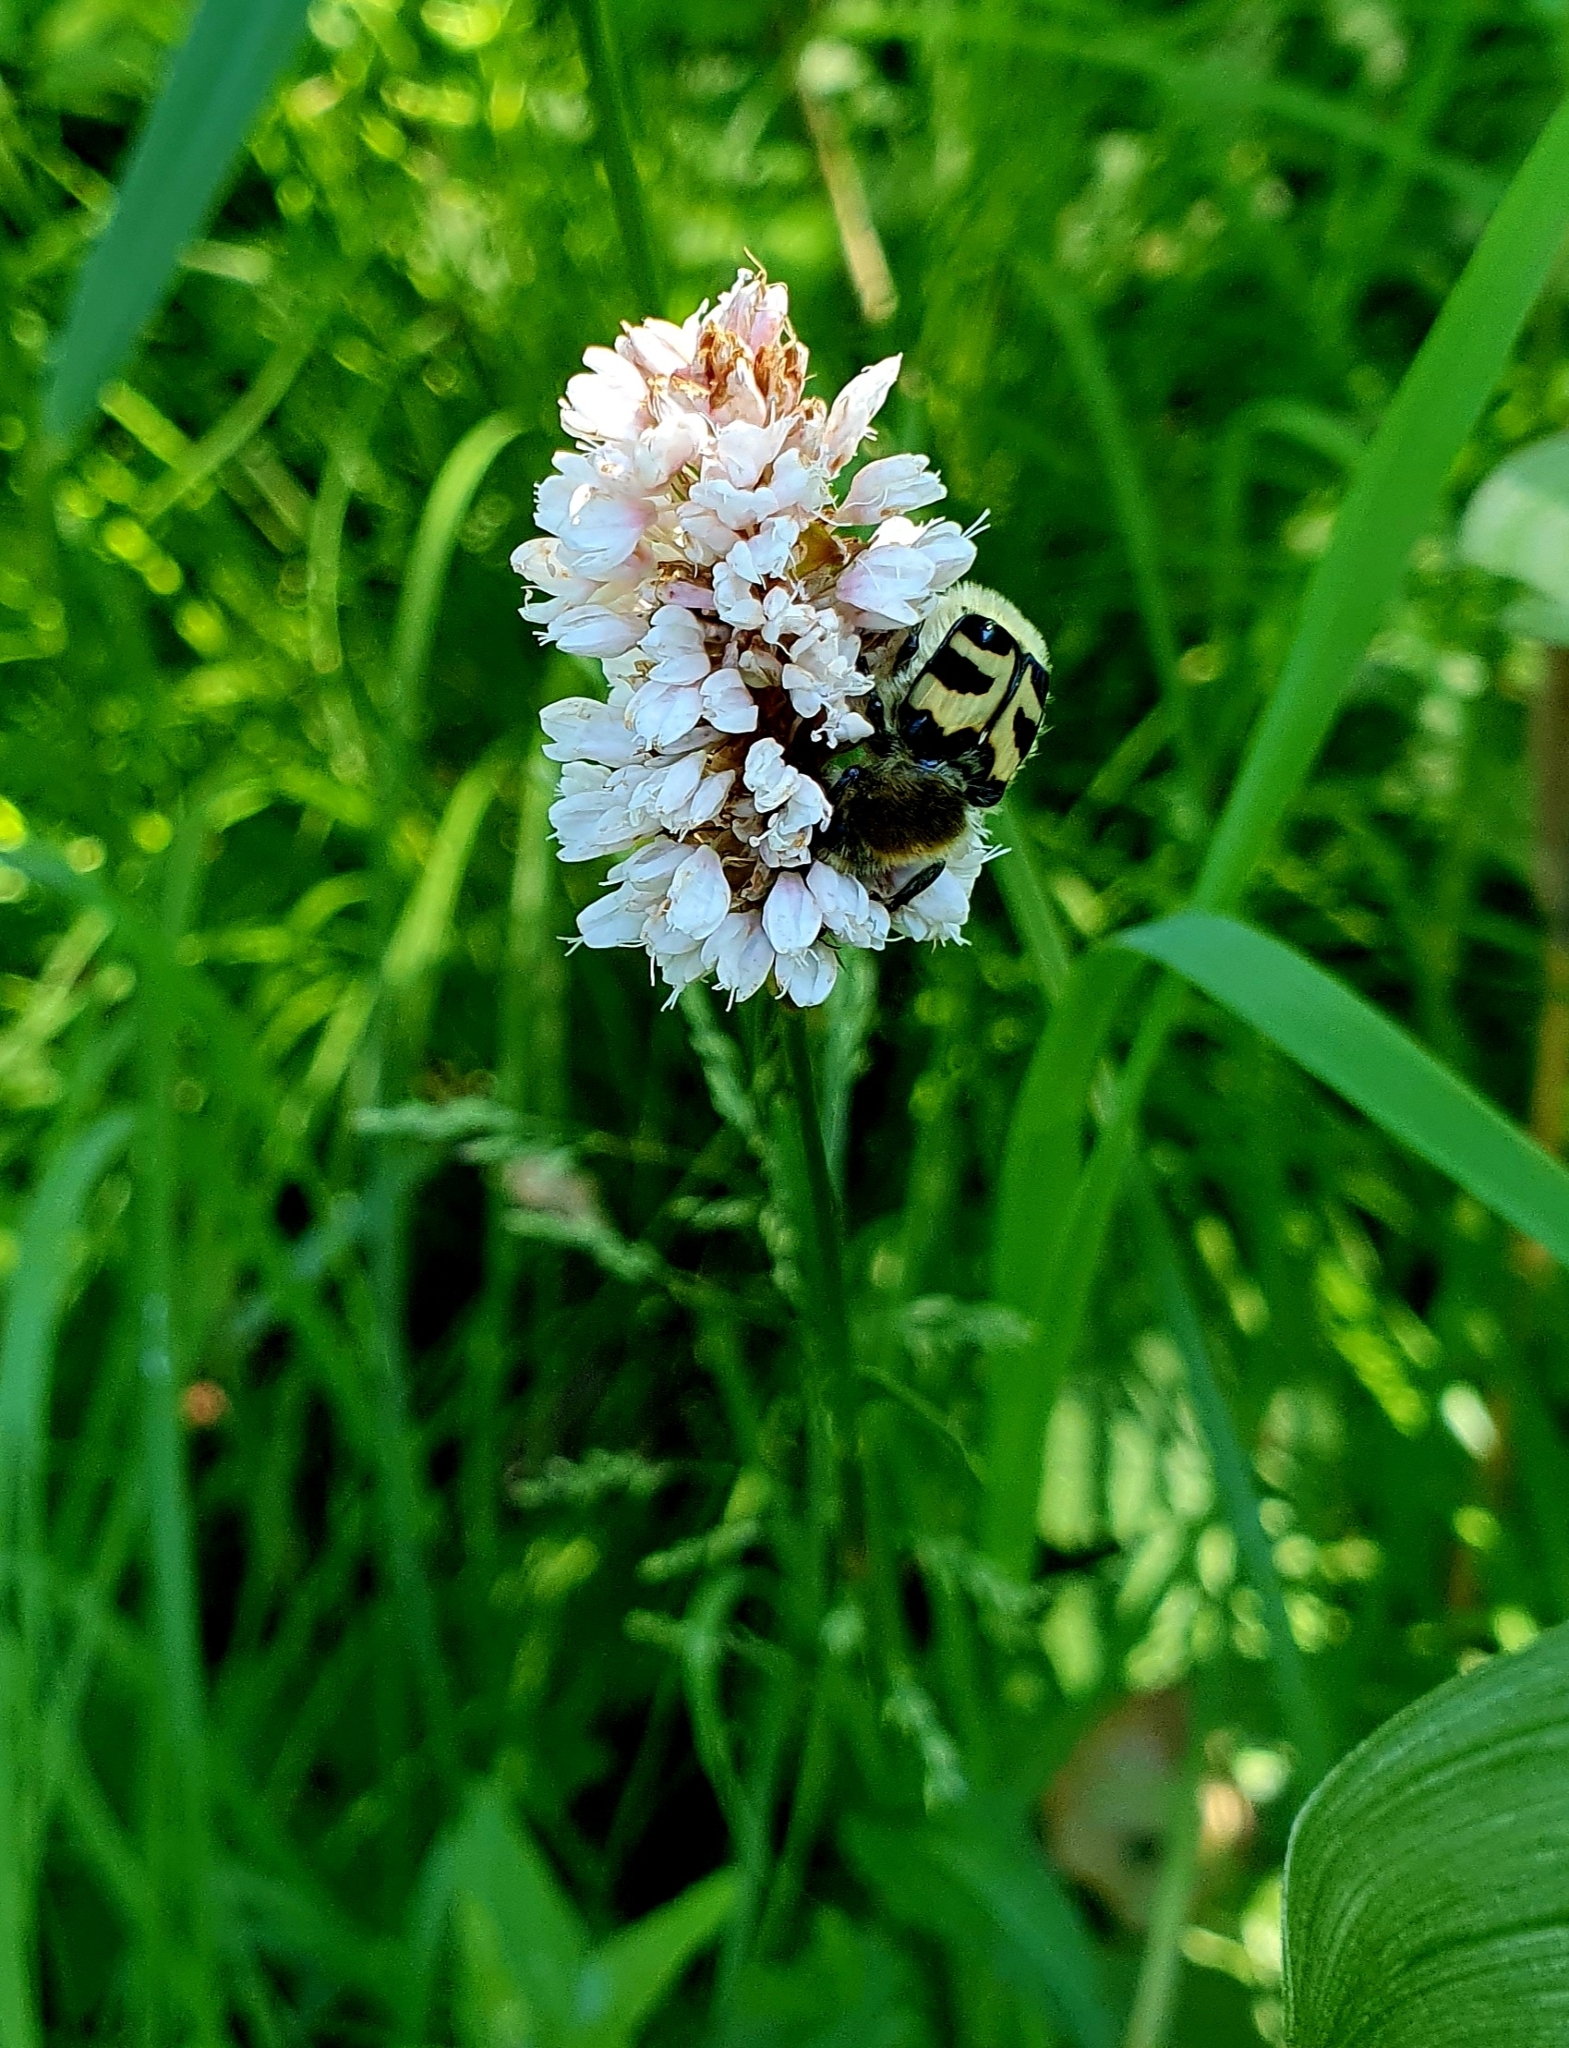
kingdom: Animalia
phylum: Arthropoda
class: Insecta
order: Coleoptera
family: Scarabaeidae
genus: Trichius
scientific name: Trichius fasciatus
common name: Bee beetle
